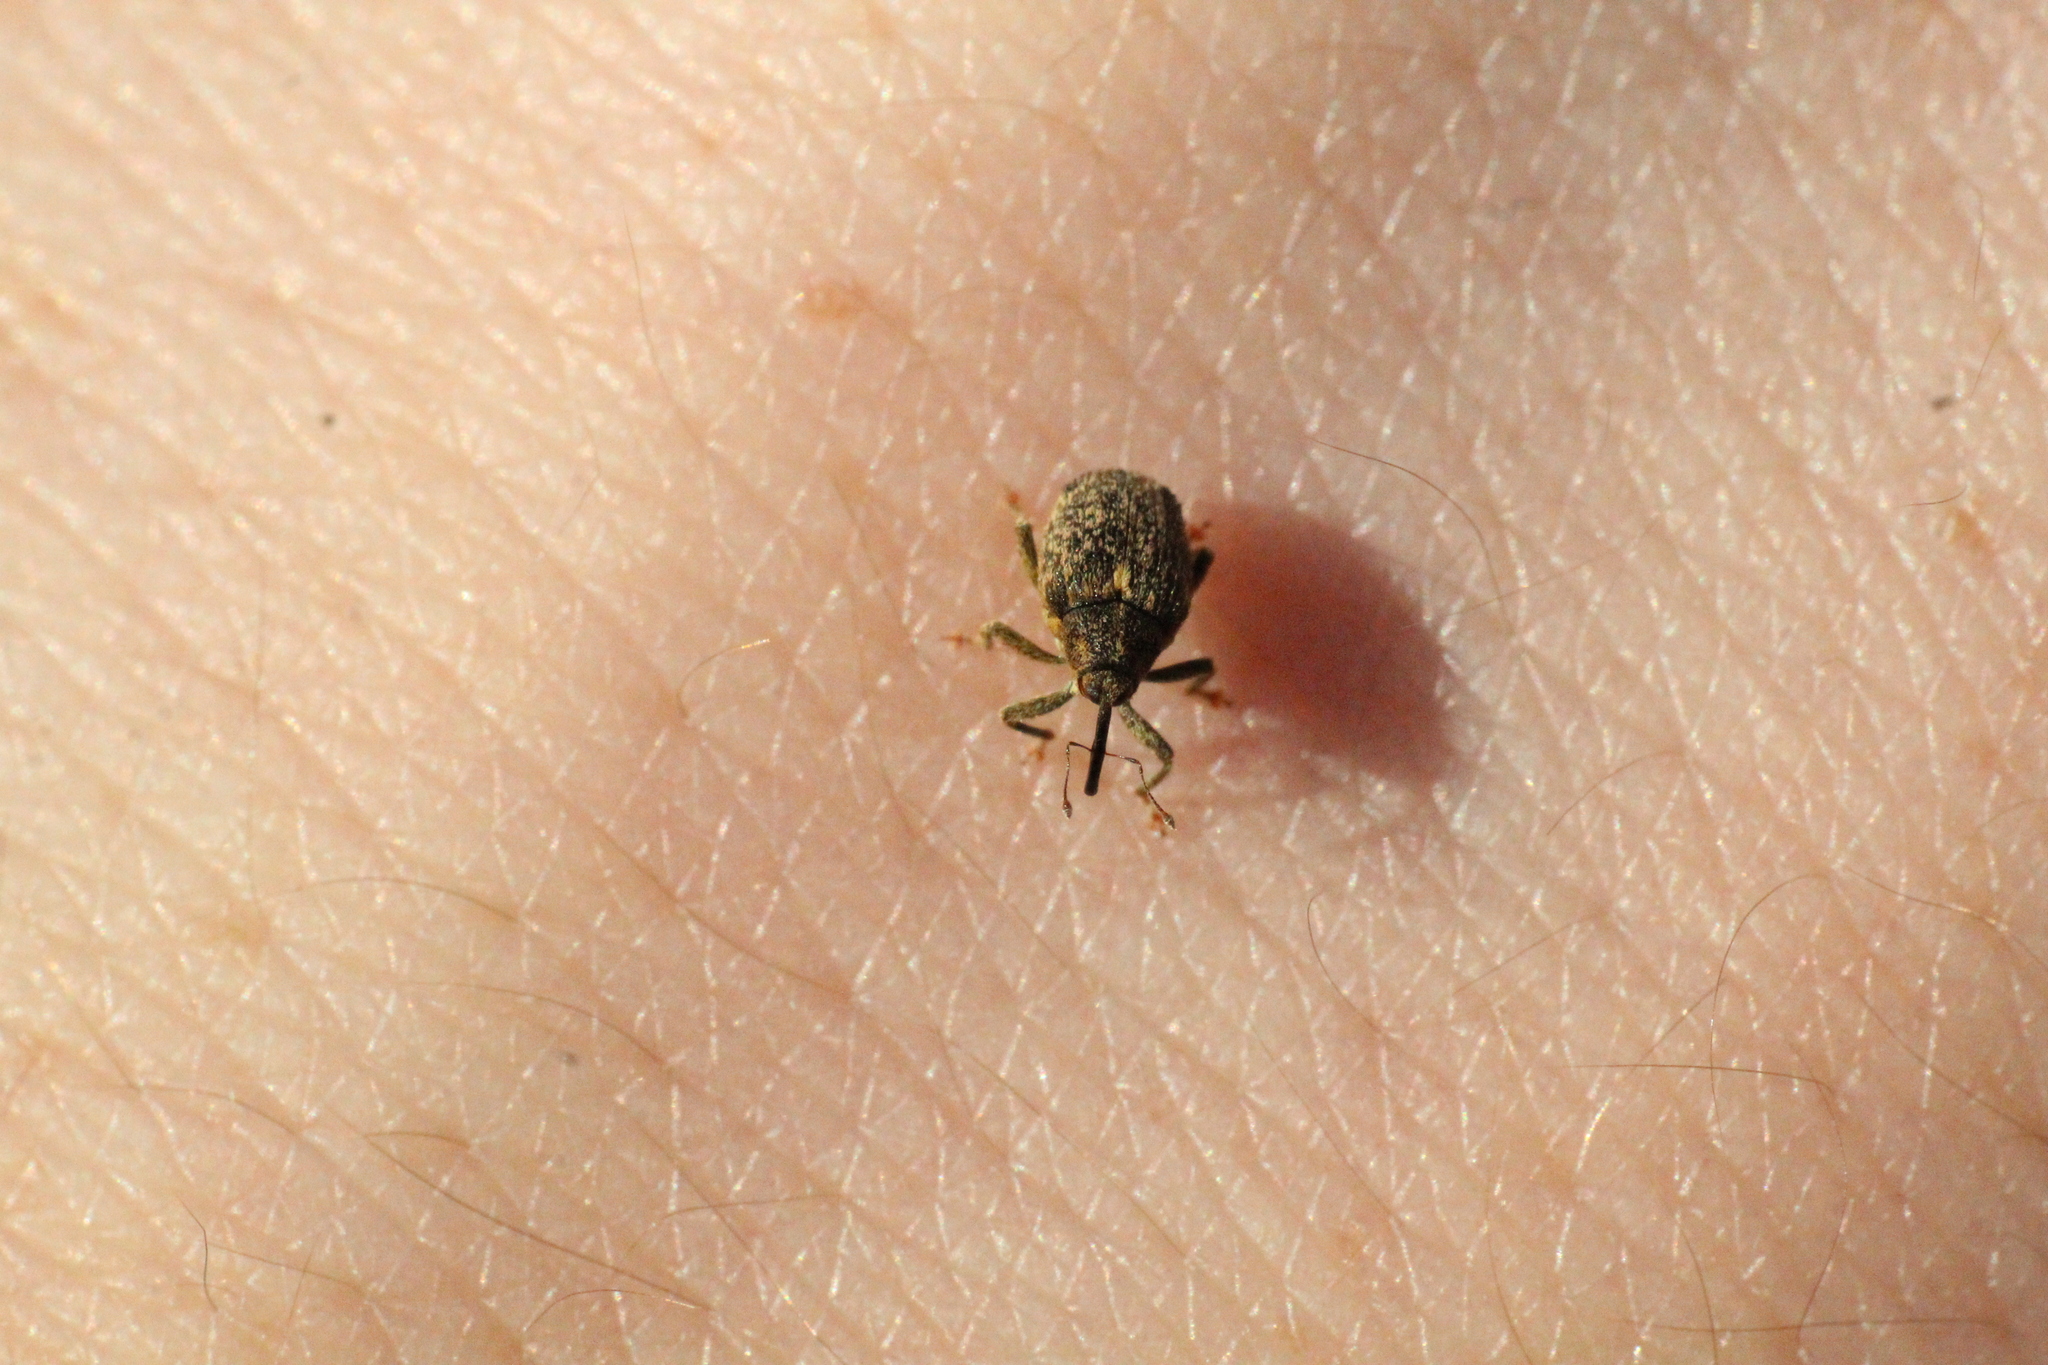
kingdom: Animalia
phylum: Arthropoda
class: Insecta
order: Coleoptera
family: Curculionidae
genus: Ceutorhynchus
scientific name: Ceutorhynchus pallidactylus
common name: Cabbage stem weavil
